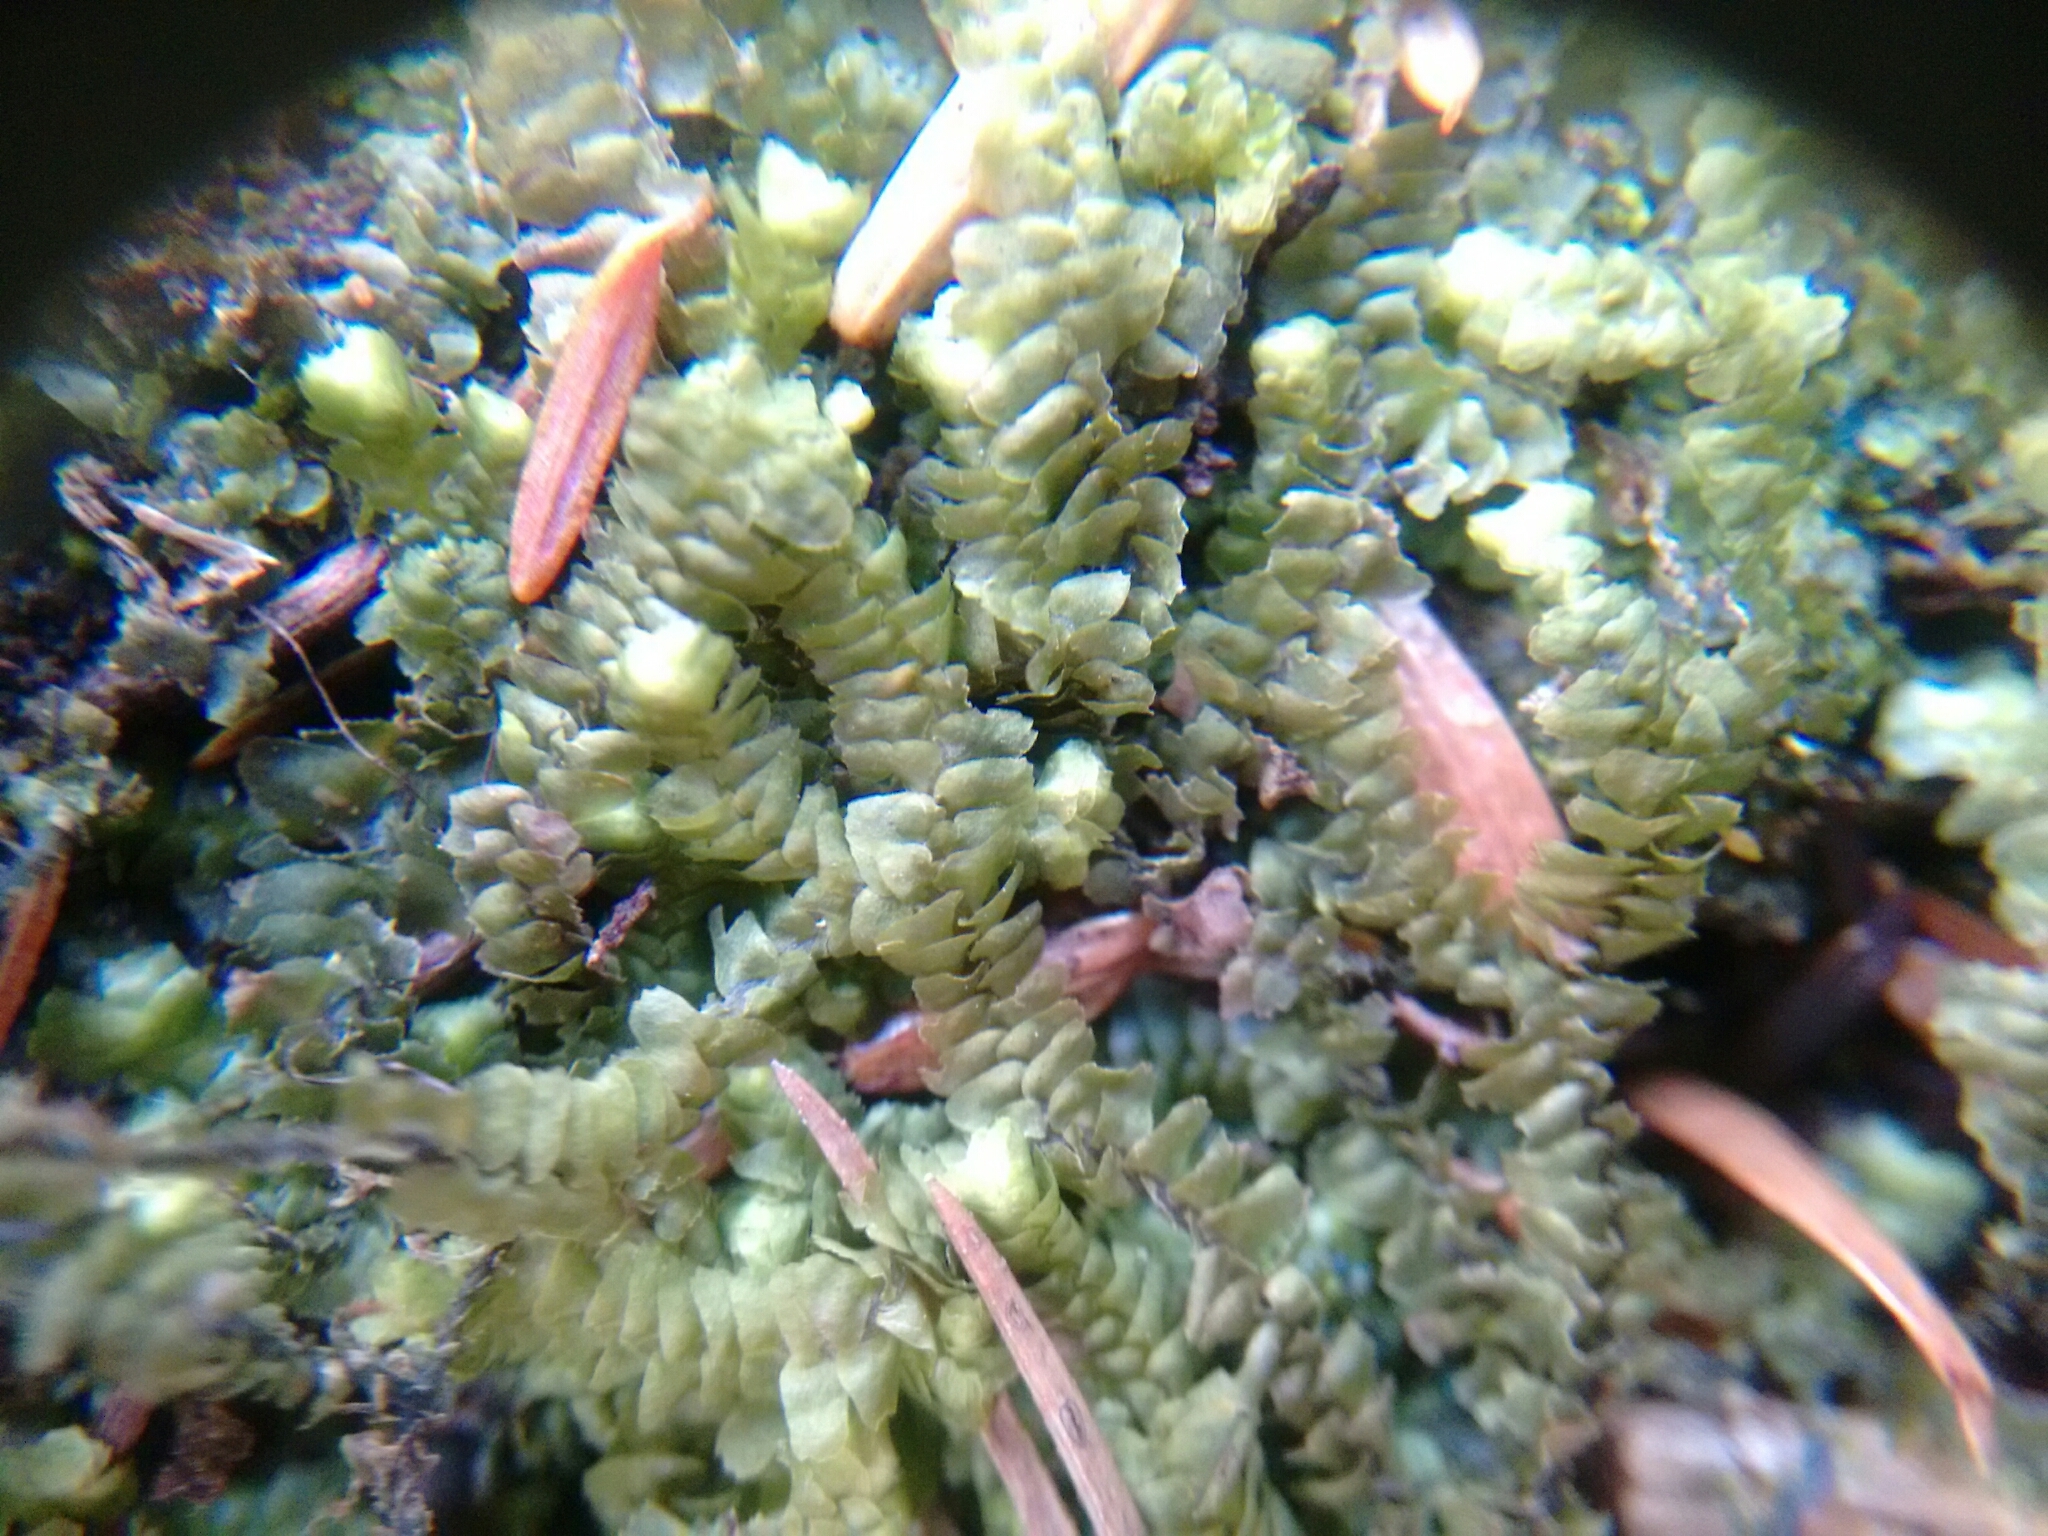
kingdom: Plantae
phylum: Marchantiophyta
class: Jungermanniopsida
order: Jungermanniales
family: Lepidoziaceae
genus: Bazzania
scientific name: Bazzania trilobata
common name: Three-lobed whipwort
